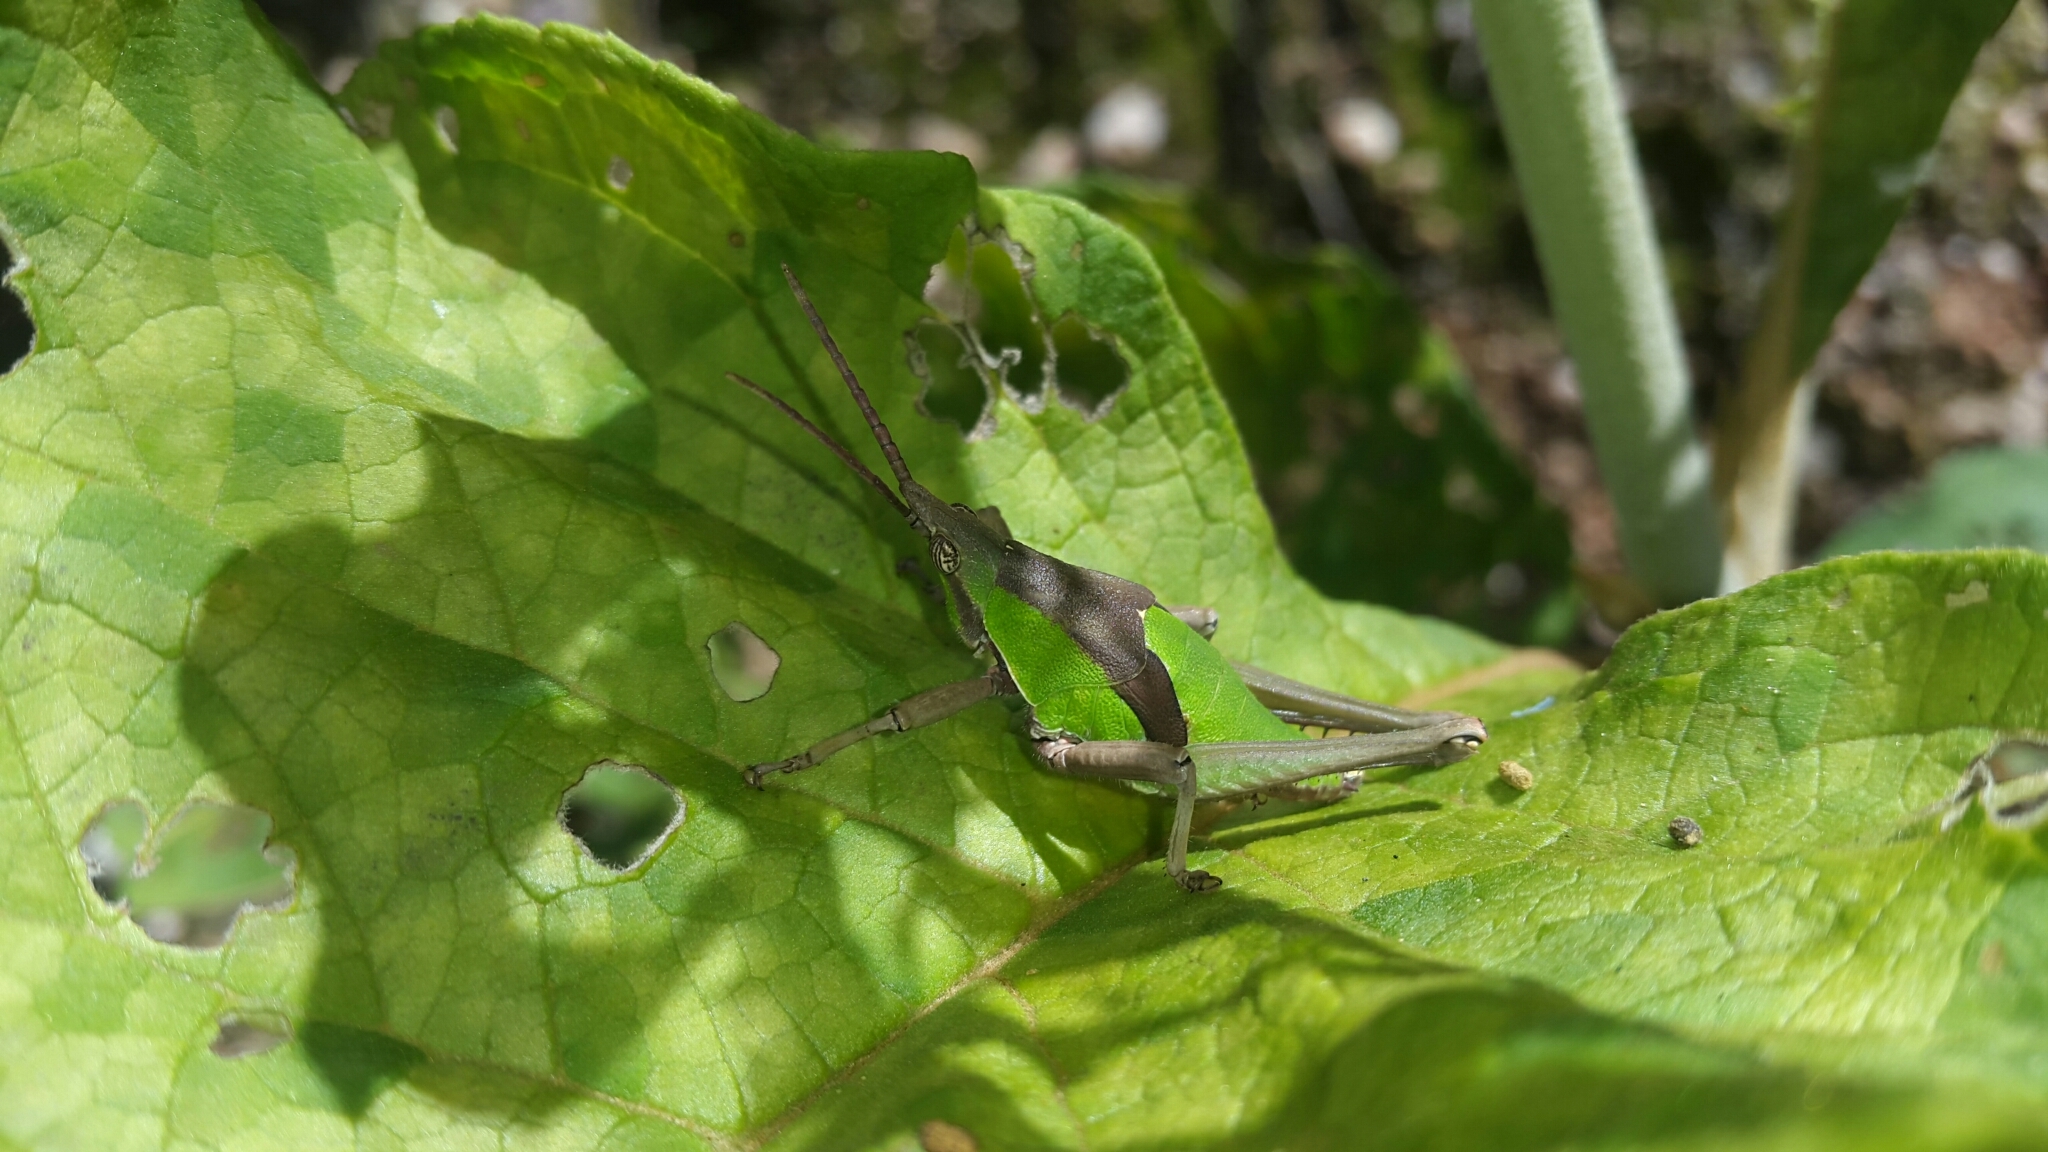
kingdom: Animalia
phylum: Arthropoda
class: Insecta
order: Orthoptera
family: Pyrgomorphidae
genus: Prosphena
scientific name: Prosphena scudderi
